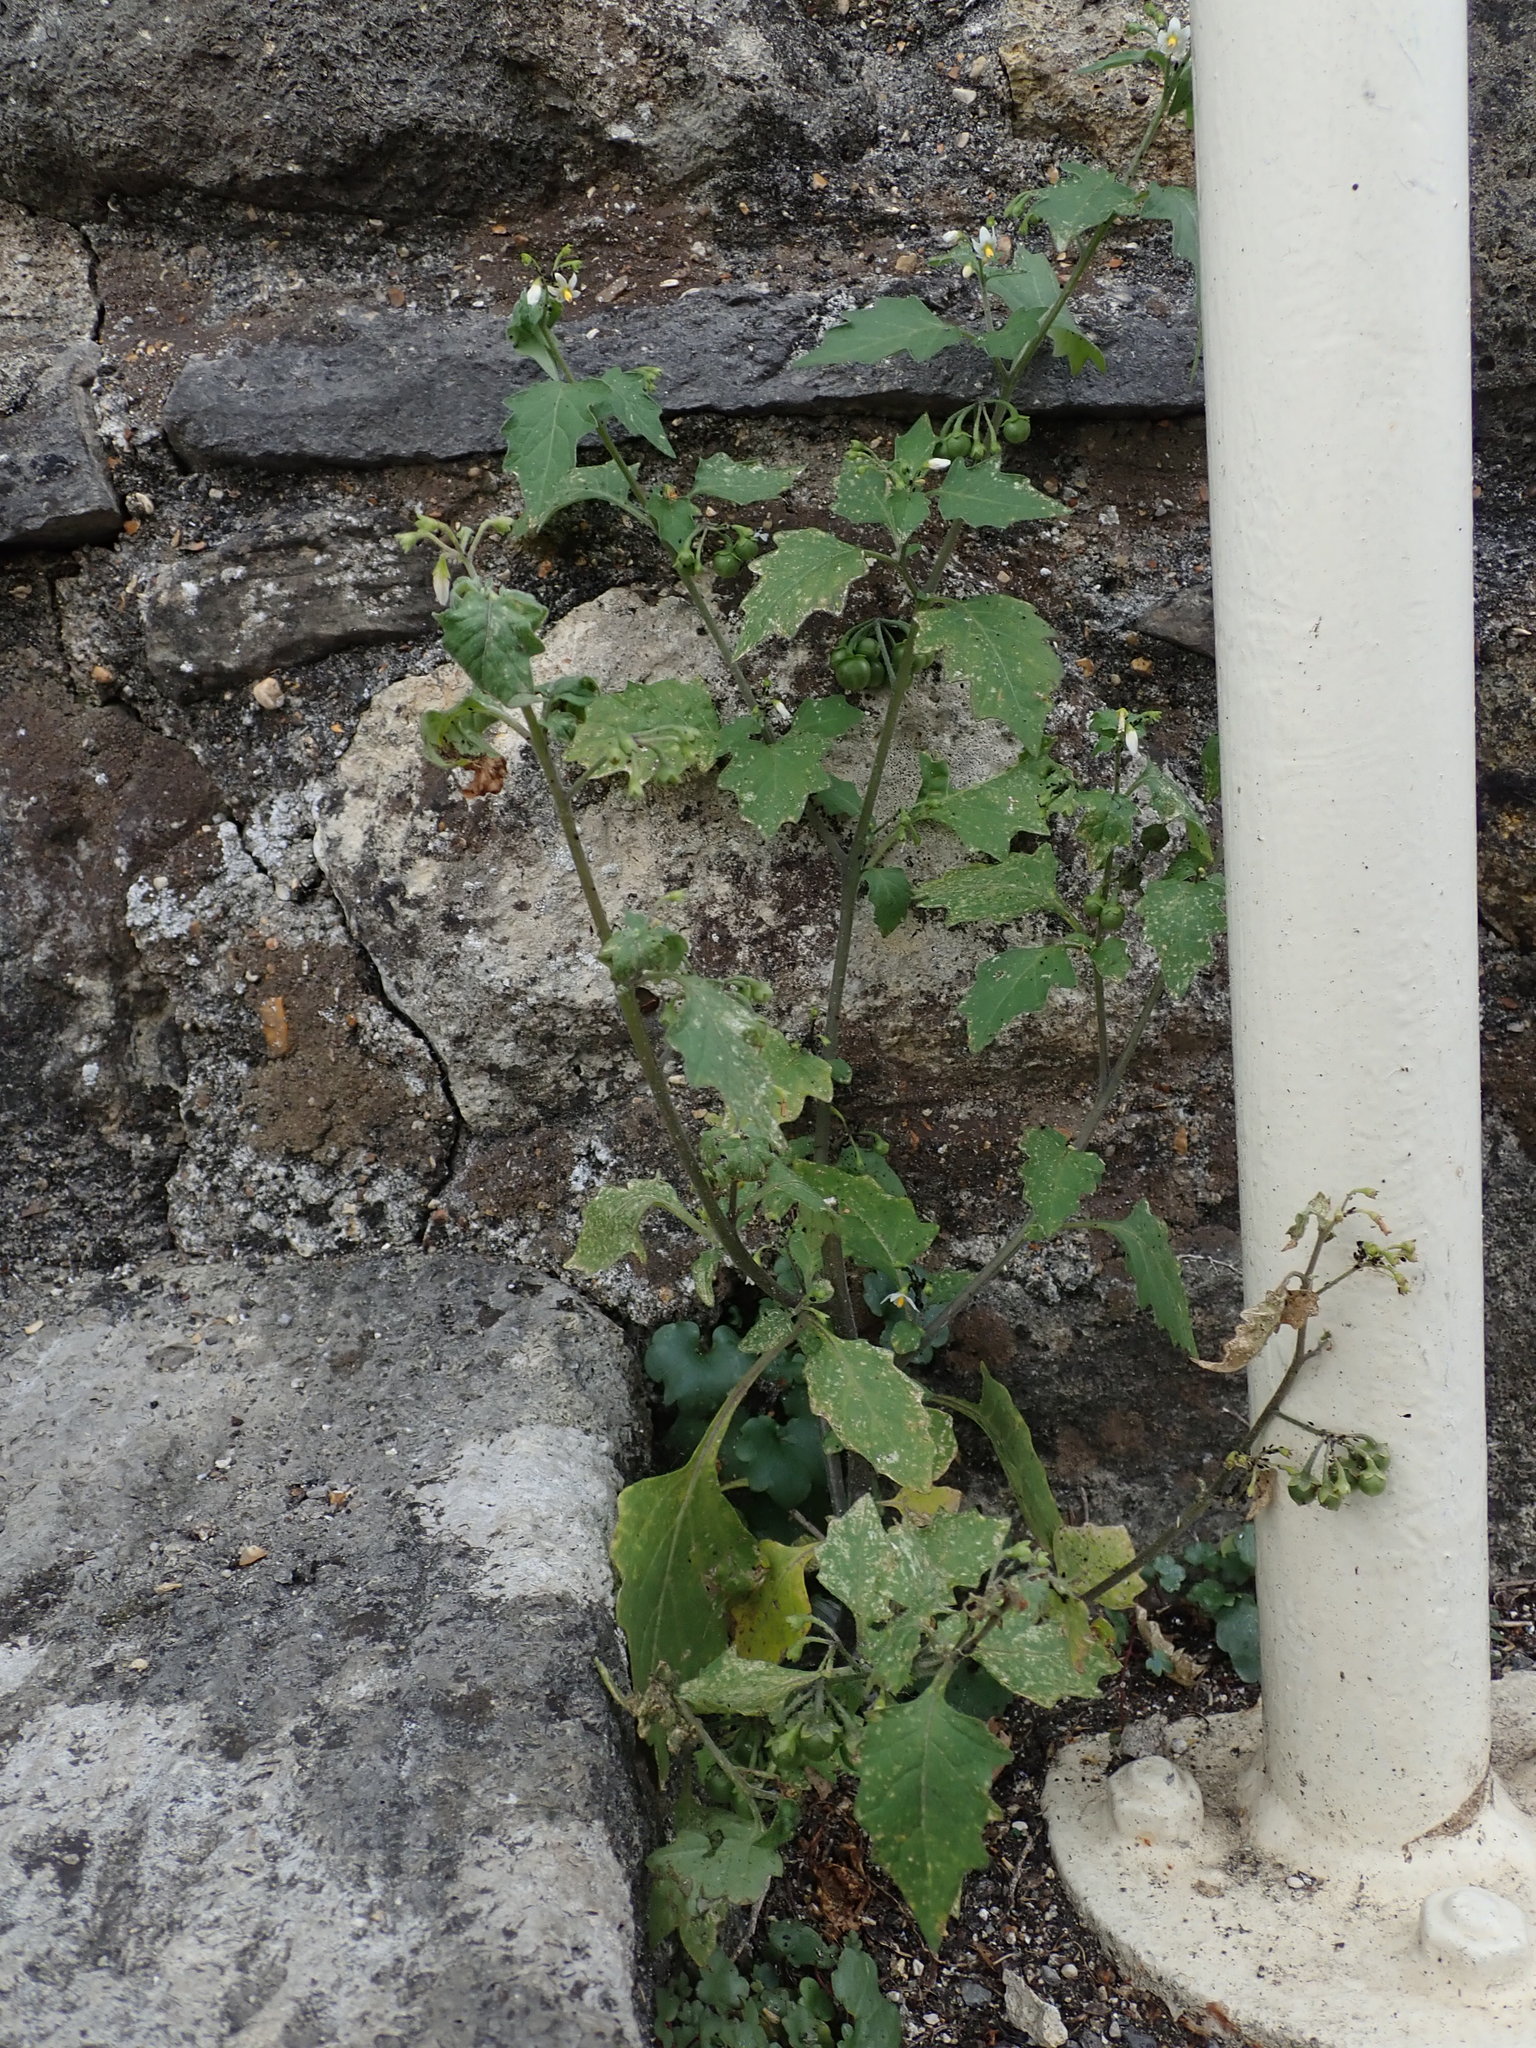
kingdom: Plantae
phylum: Tracheophyta
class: Magnoliopsida
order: Solanales
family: Solanaceae
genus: Solanum
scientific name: Solanum nigrum
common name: Black nightshade
